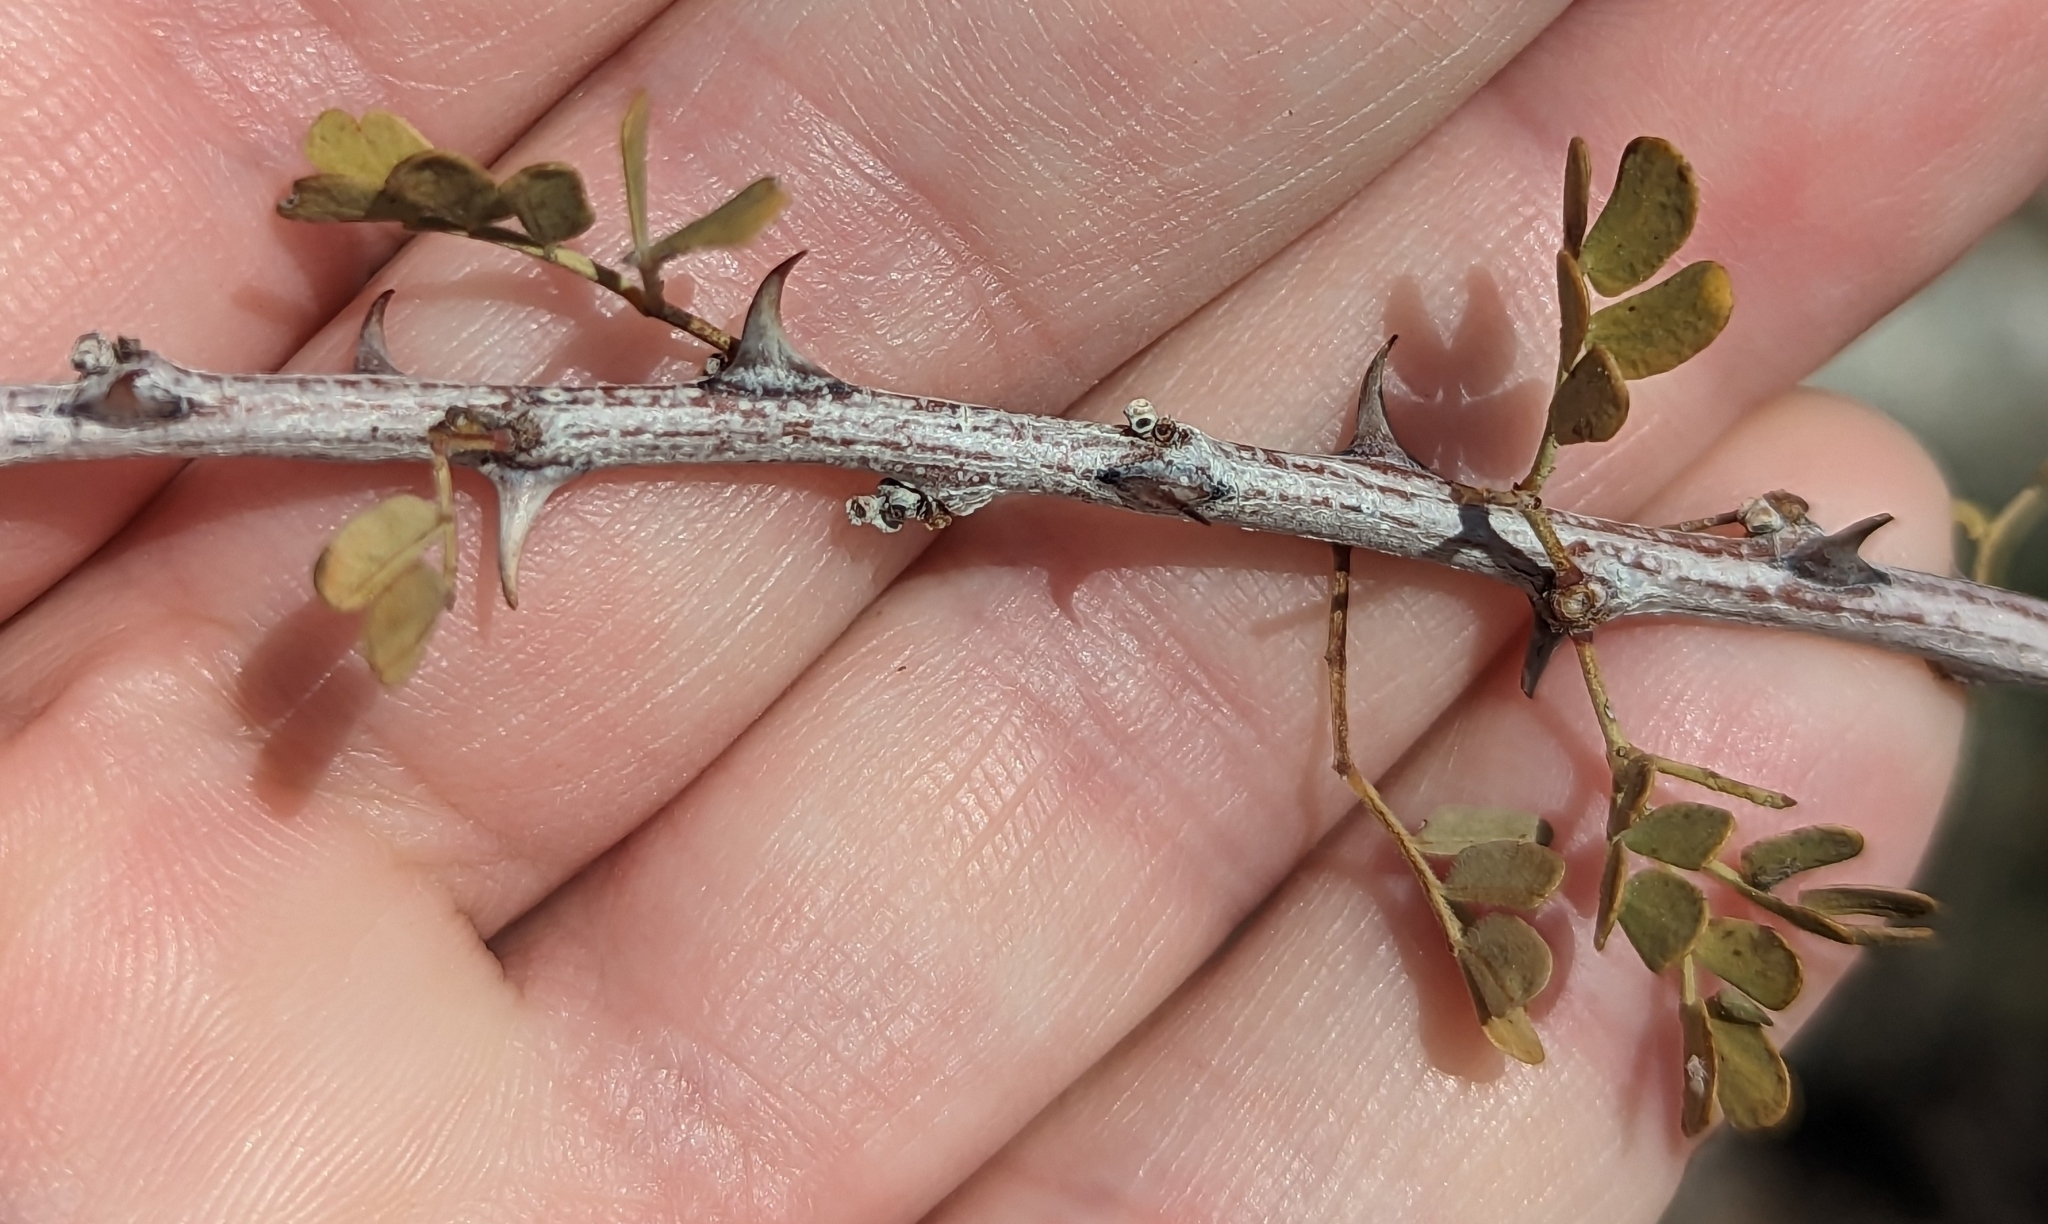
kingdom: Plantae
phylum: Tracheophyta
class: Magnoliopsida
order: Fabales
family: Fabaceae
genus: Senegalia
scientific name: Senegalia greggii
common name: Texas-mimosa
